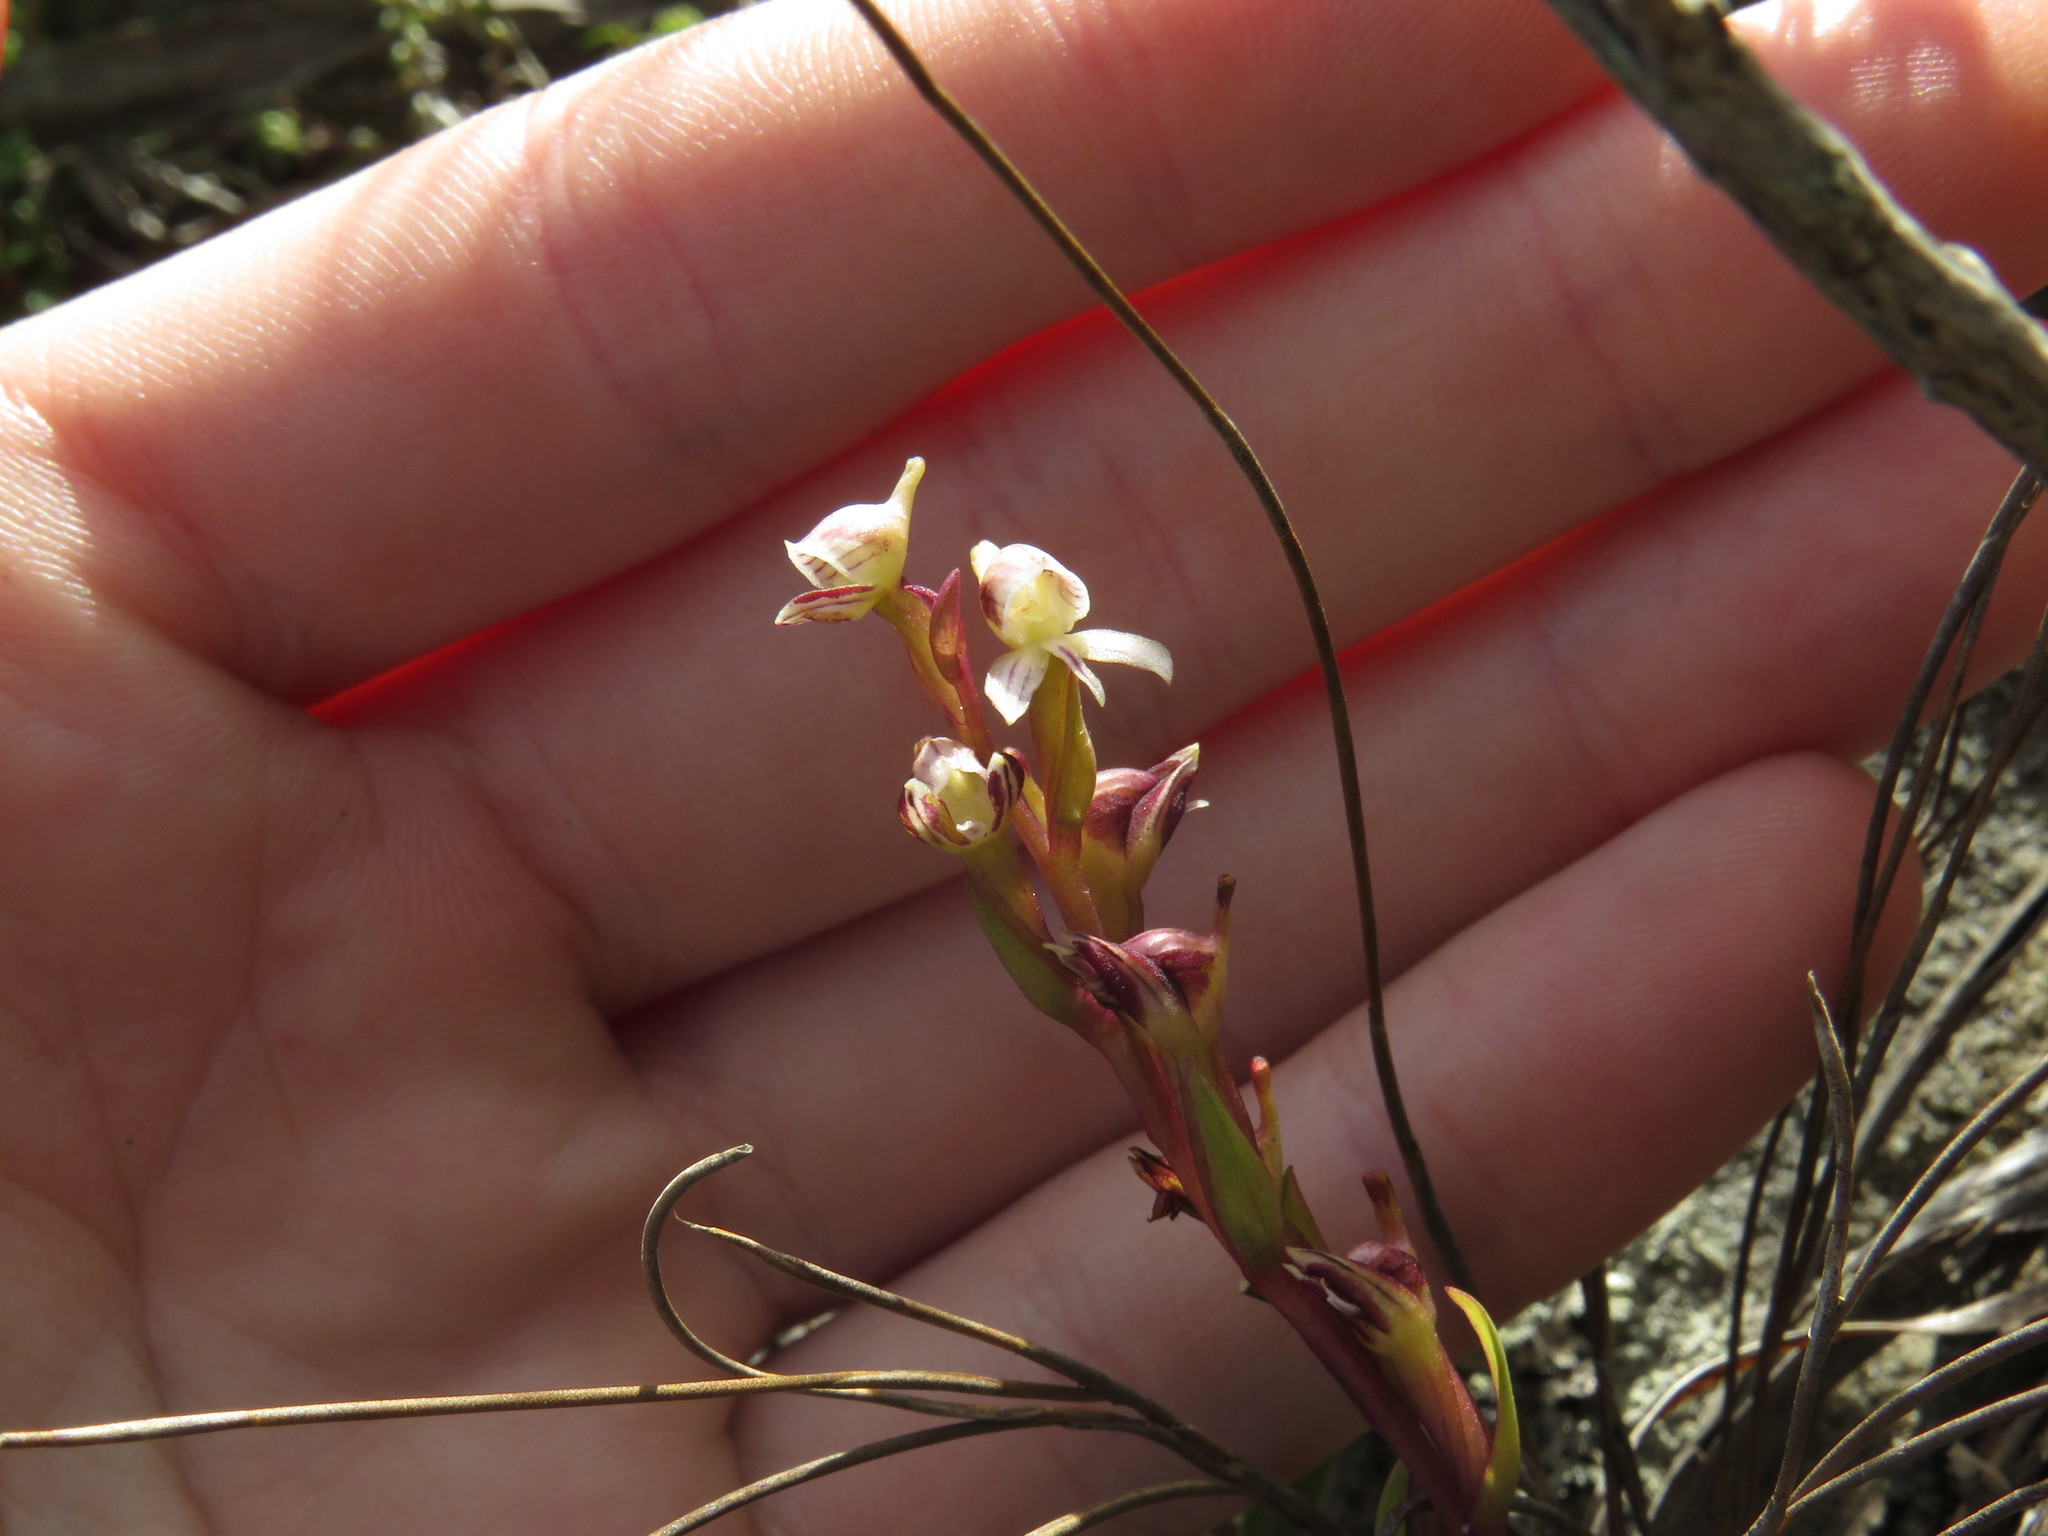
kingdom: Plantae
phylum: Tracheophyta
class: Liliopsida
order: Asparagales
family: Orchidaceae
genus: Disa
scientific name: Disa ocellata
